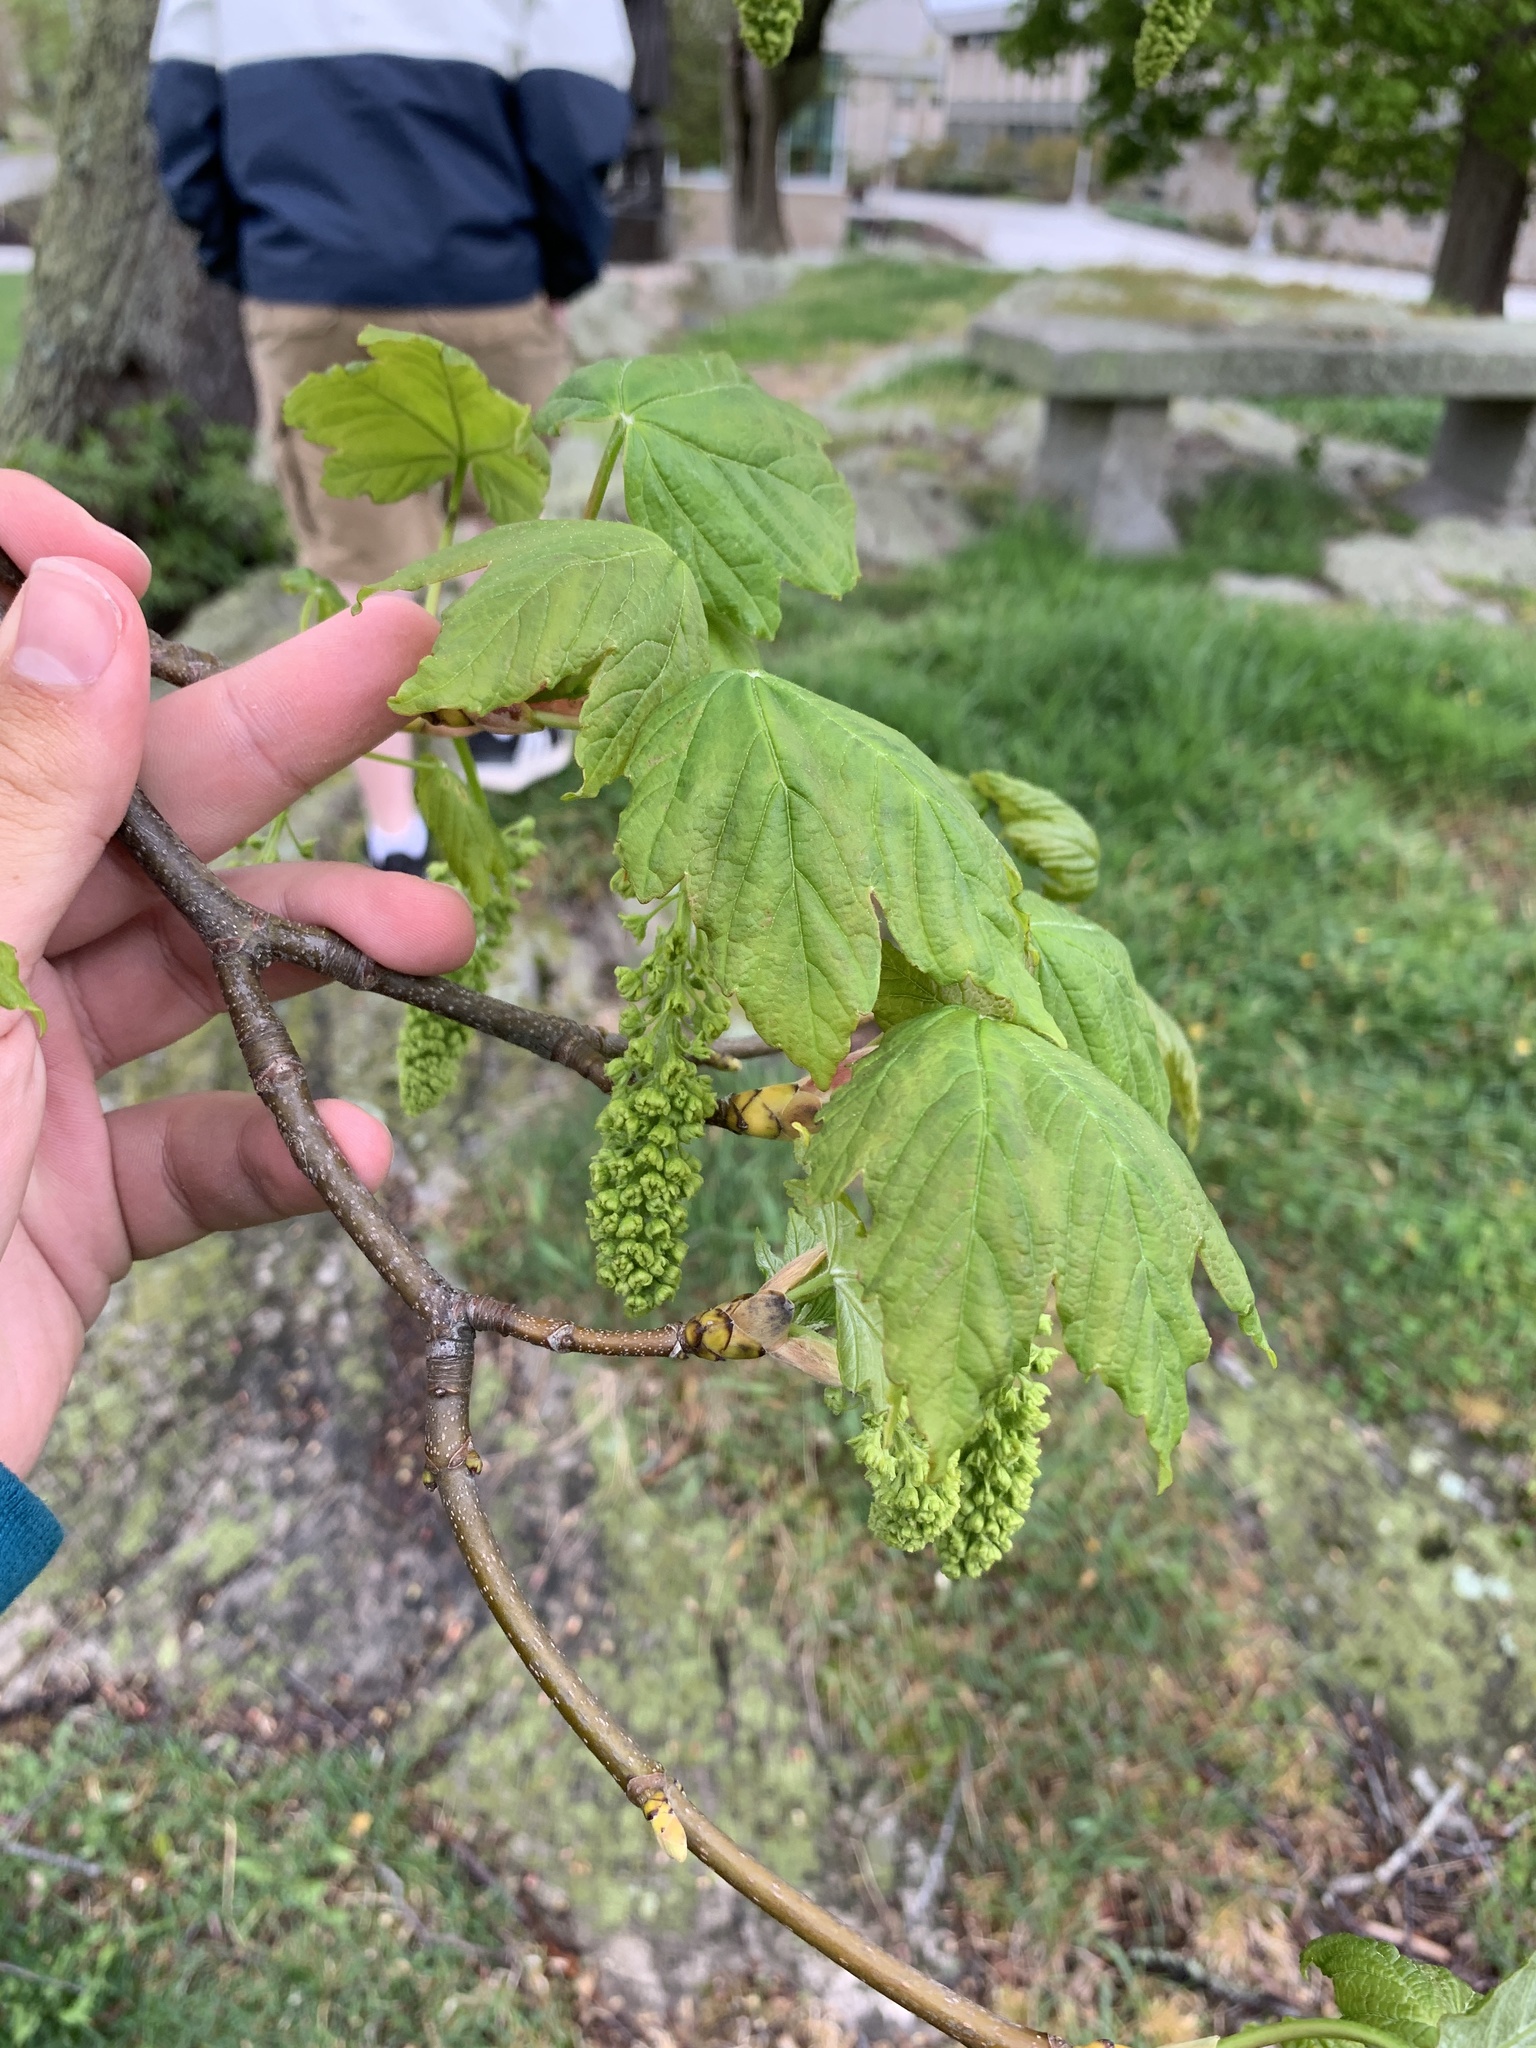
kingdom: Plantae
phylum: Tracheophyta
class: Magnoliopsida
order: Sapindales
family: Sapindaceae
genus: Acer
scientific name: Acer pseudoplatanus
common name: Sycamore
